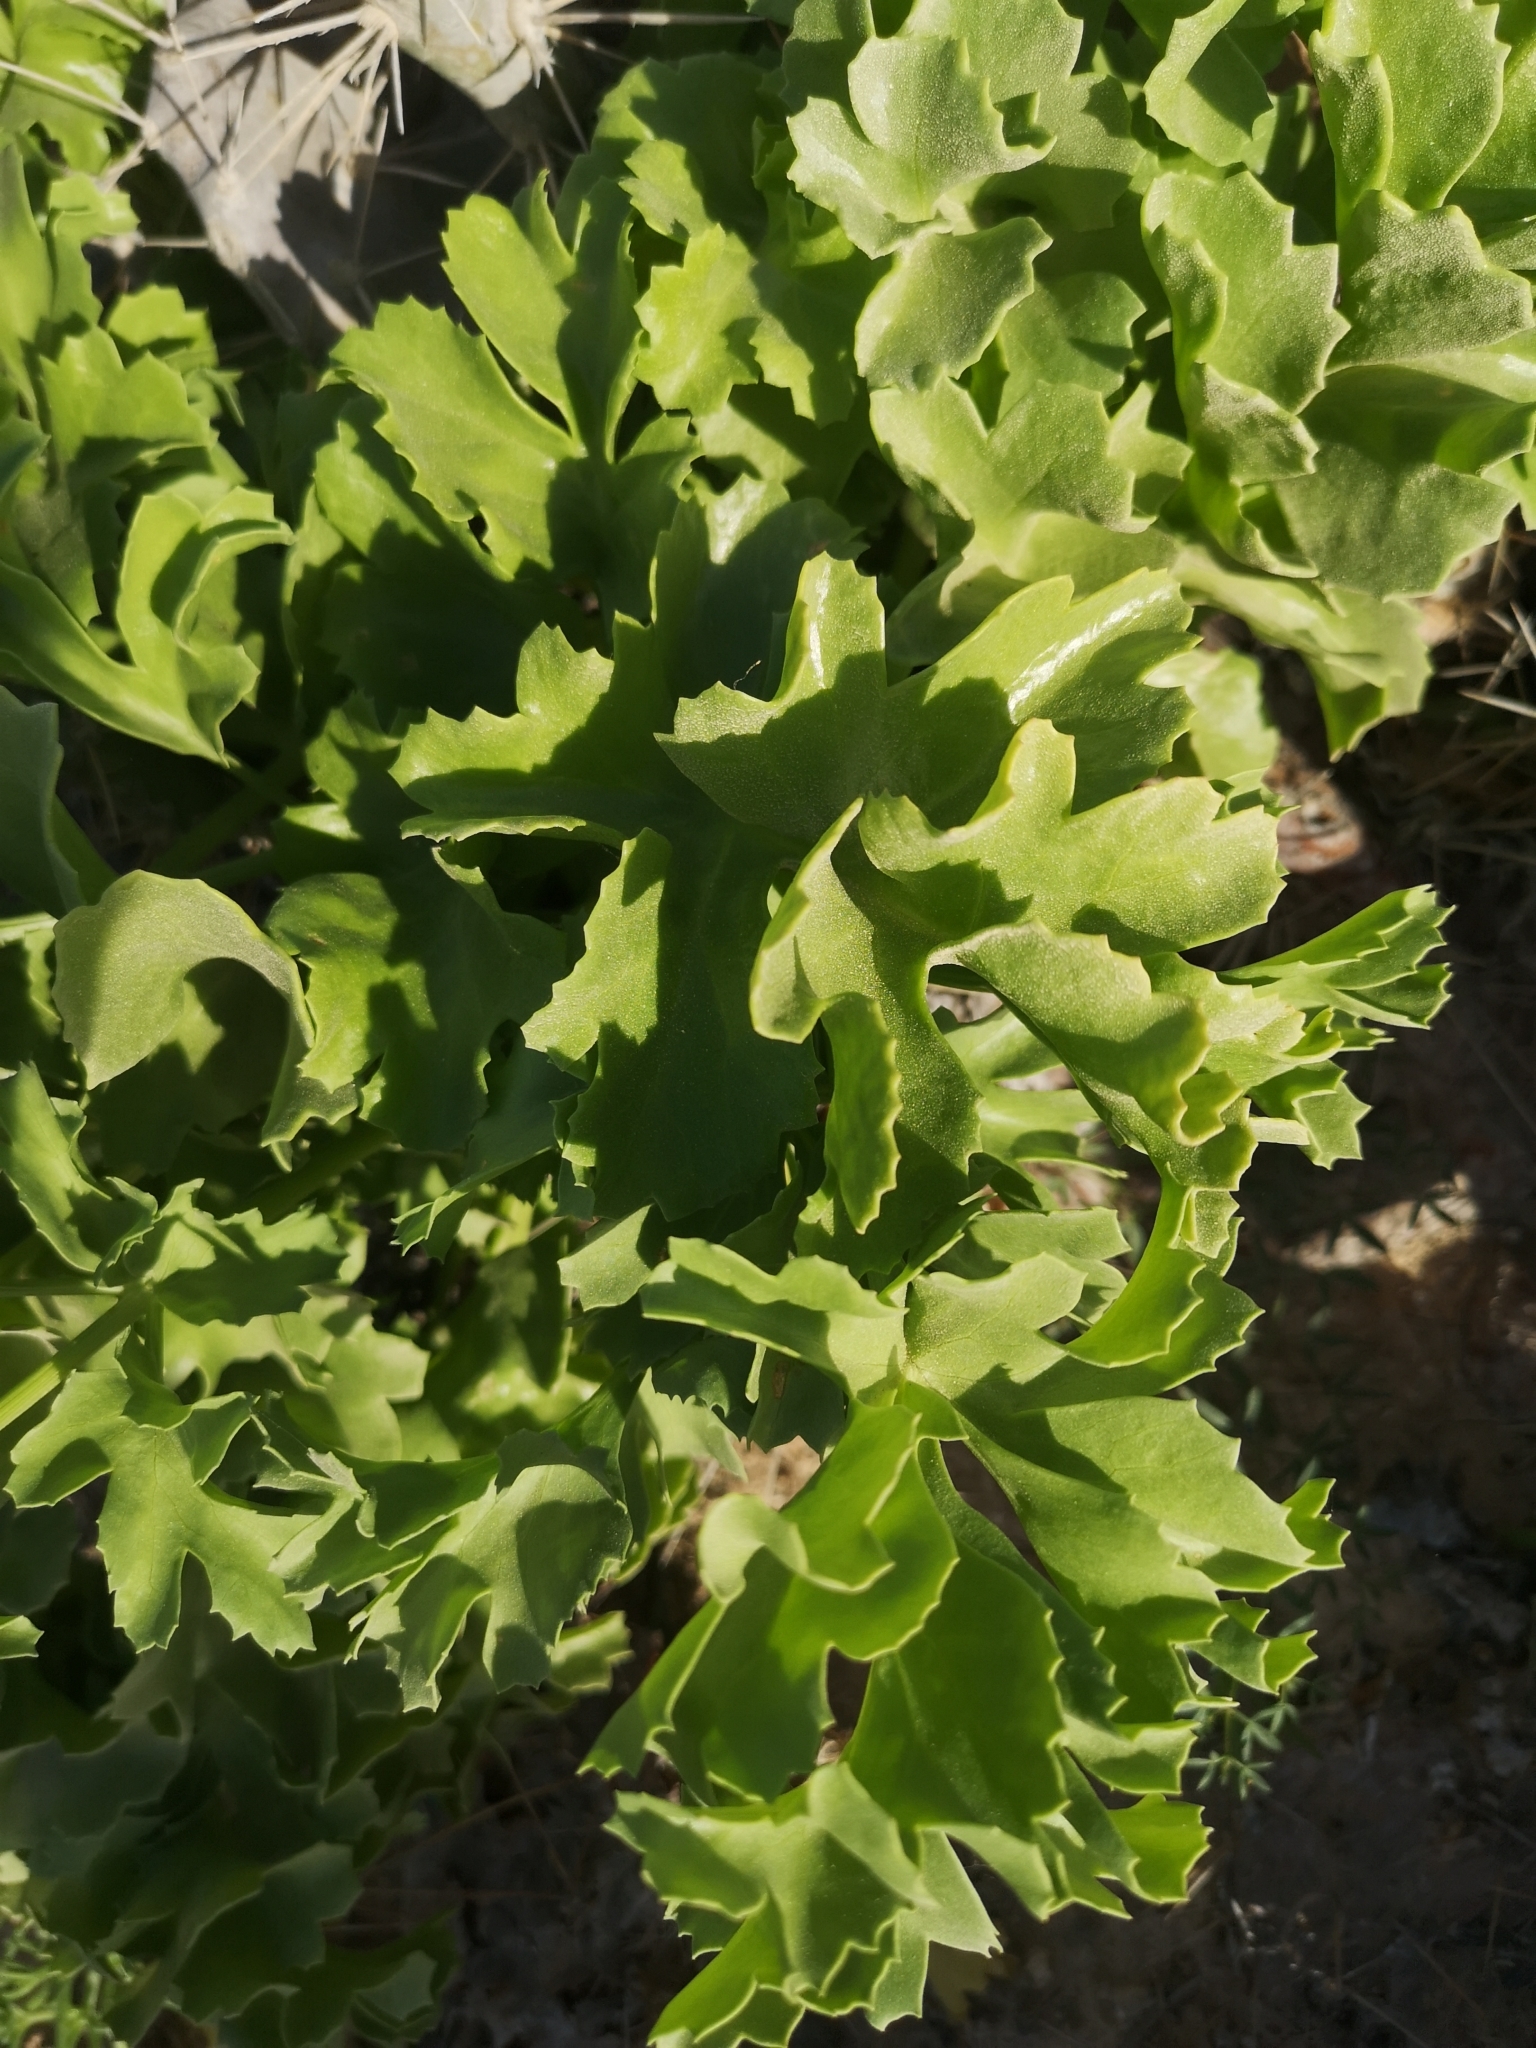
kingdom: Plantae
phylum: Tracheophyta
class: Magnoliopsida
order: Apiales
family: Apiaceae
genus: Astydamia
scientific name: Astydamia latifolia
